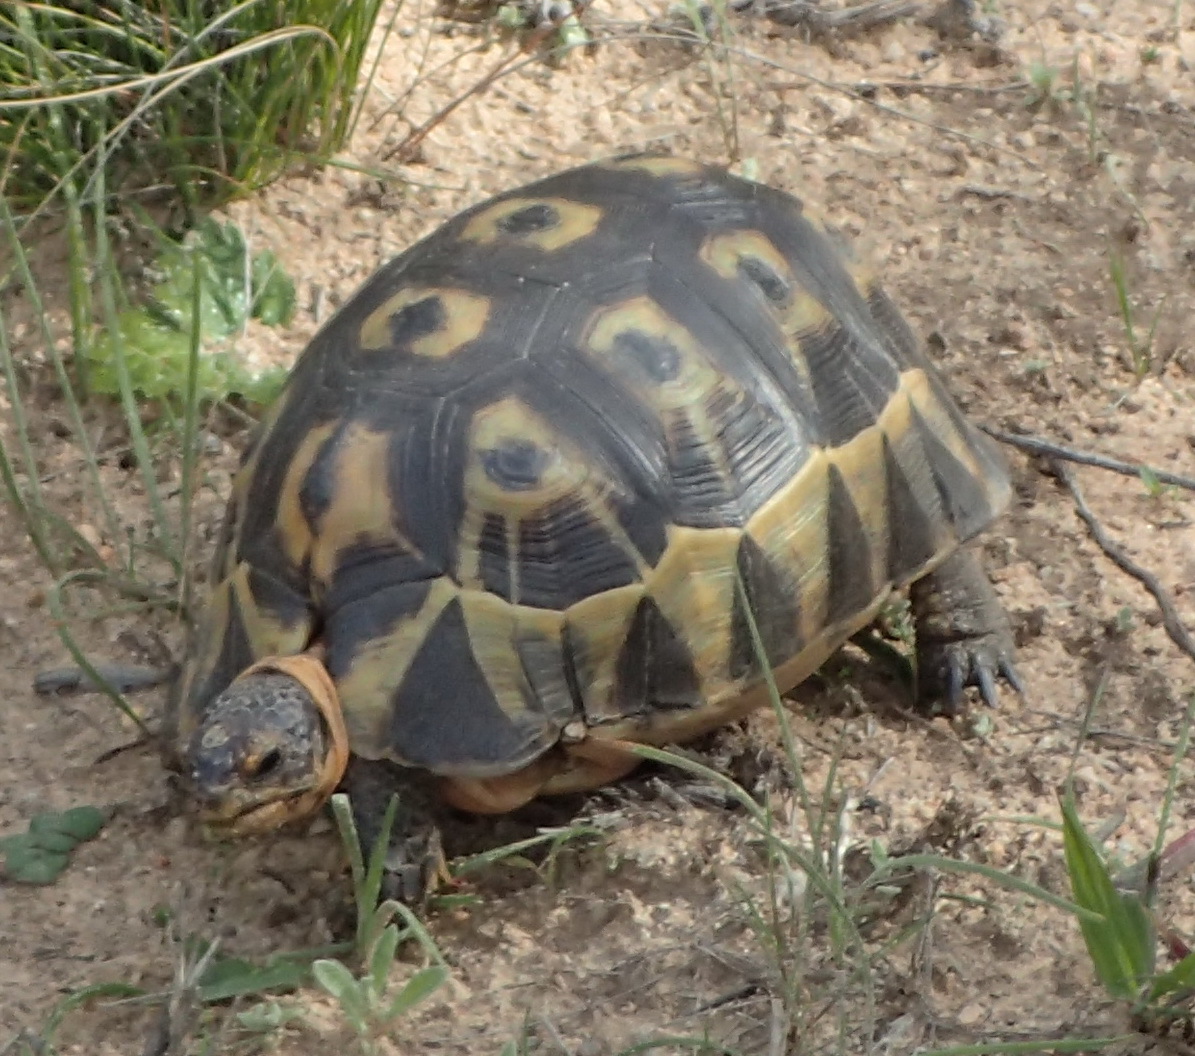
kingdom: Animalia
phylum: Chordata
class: Testudines
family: Testudinidae
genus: Chersina
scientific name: Chersina angulata
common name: South african bowsprit tortoise
